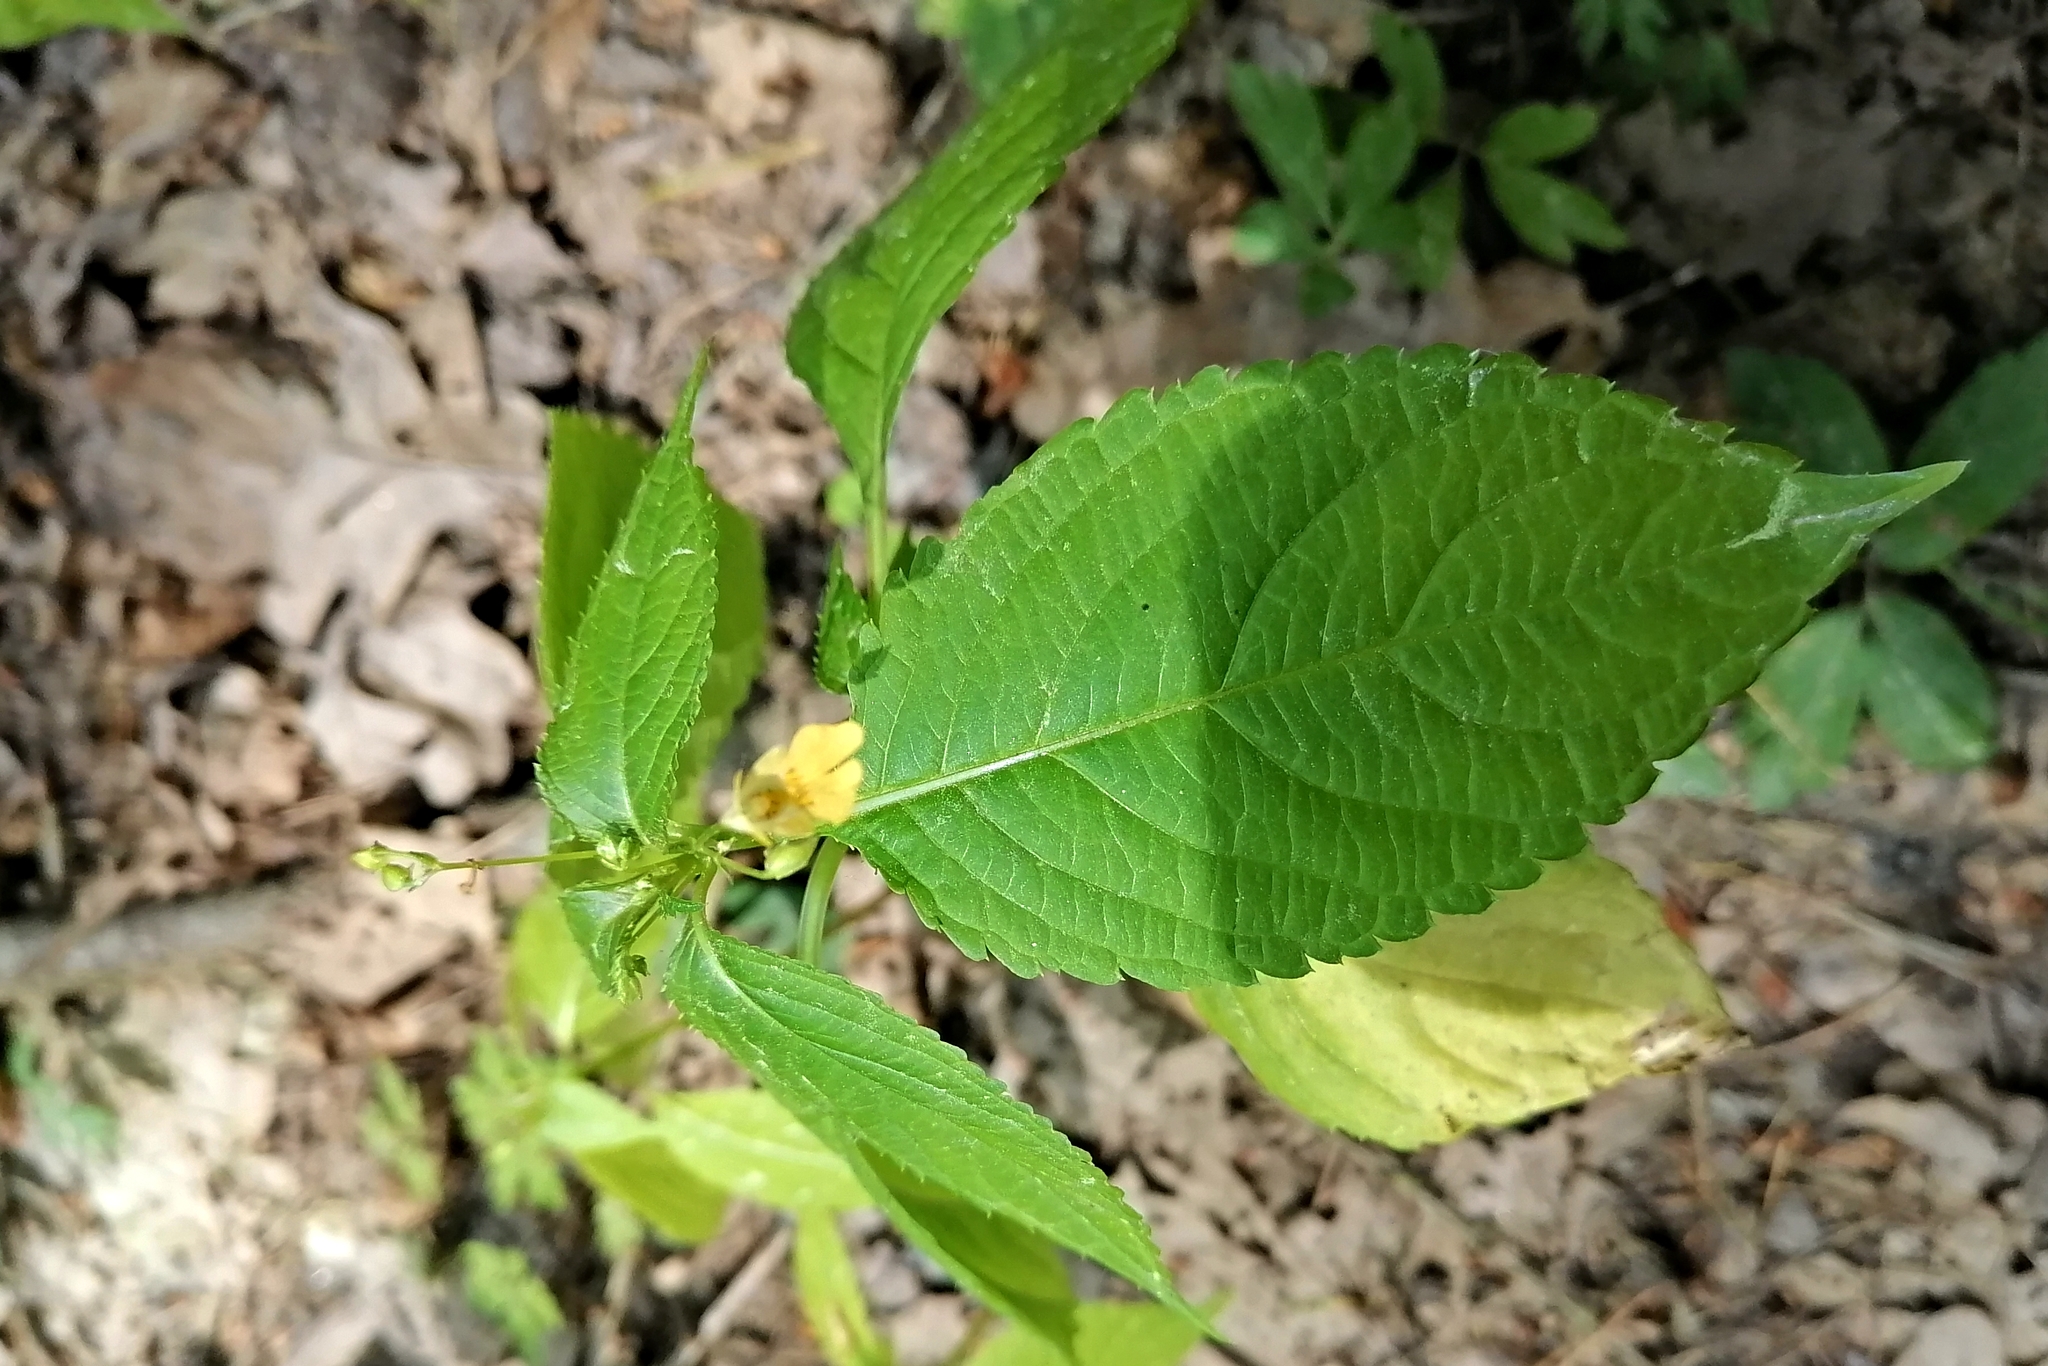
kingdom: Plantae
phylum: Tracheophyta
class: Magnoliopsida
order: Ericales
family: Balsaminaceae
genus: Impatiens
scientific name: Impatiens parviflora
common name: Small balsam
